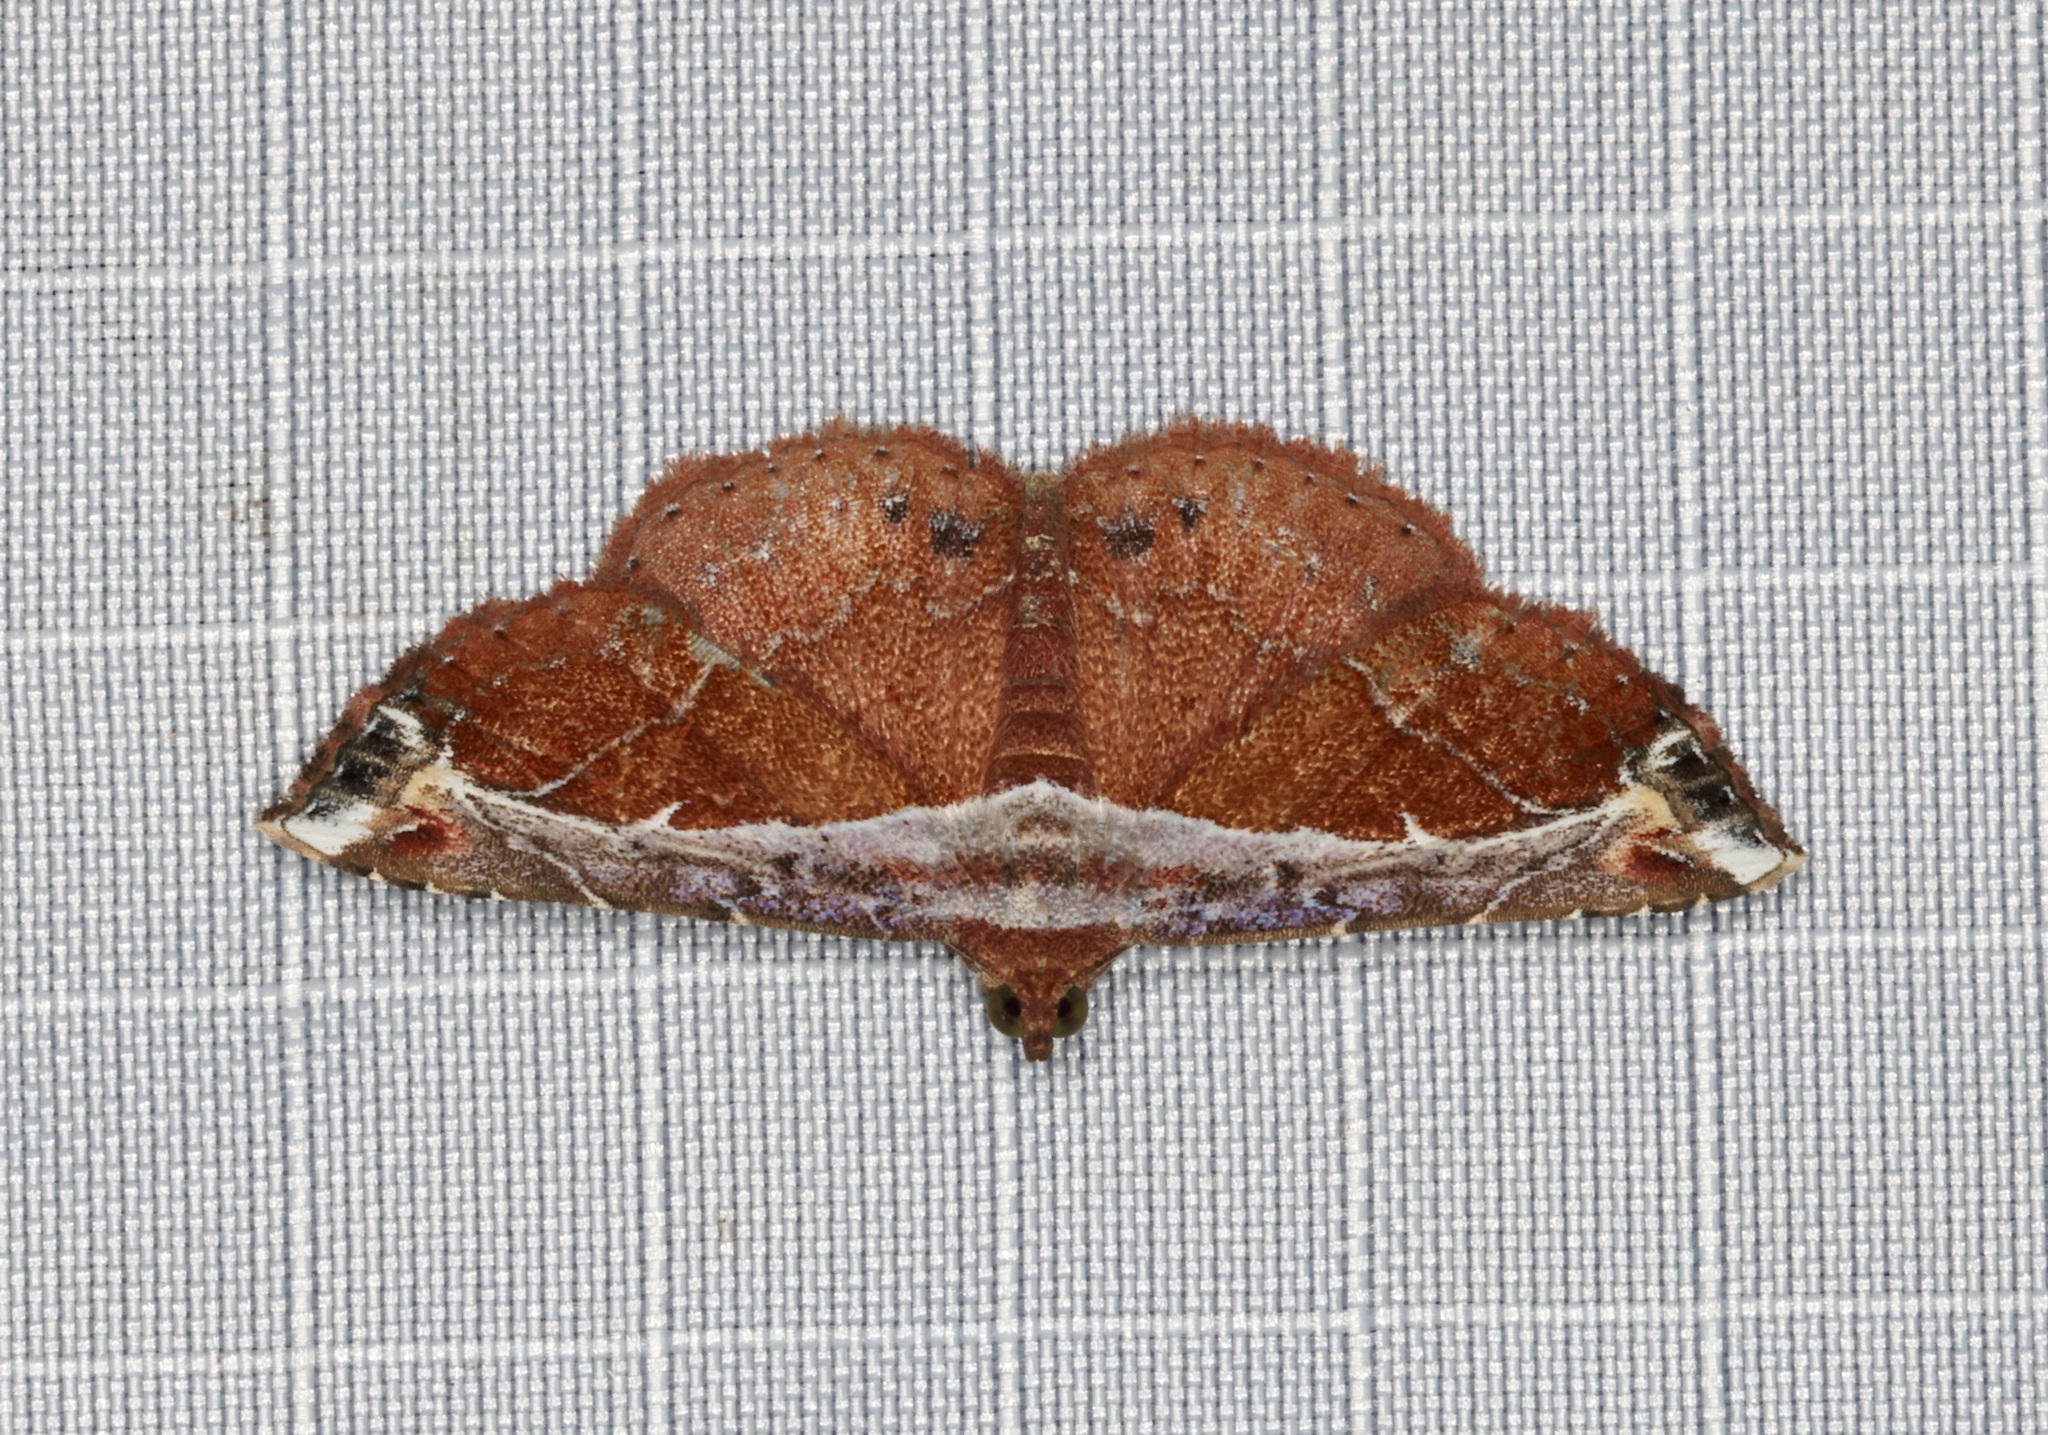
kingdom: Animalia
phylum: Arthropoda
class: Insecta
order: Lepidoptera
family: Erebidae
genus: Zurobata
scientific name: Zurobata vacillans
